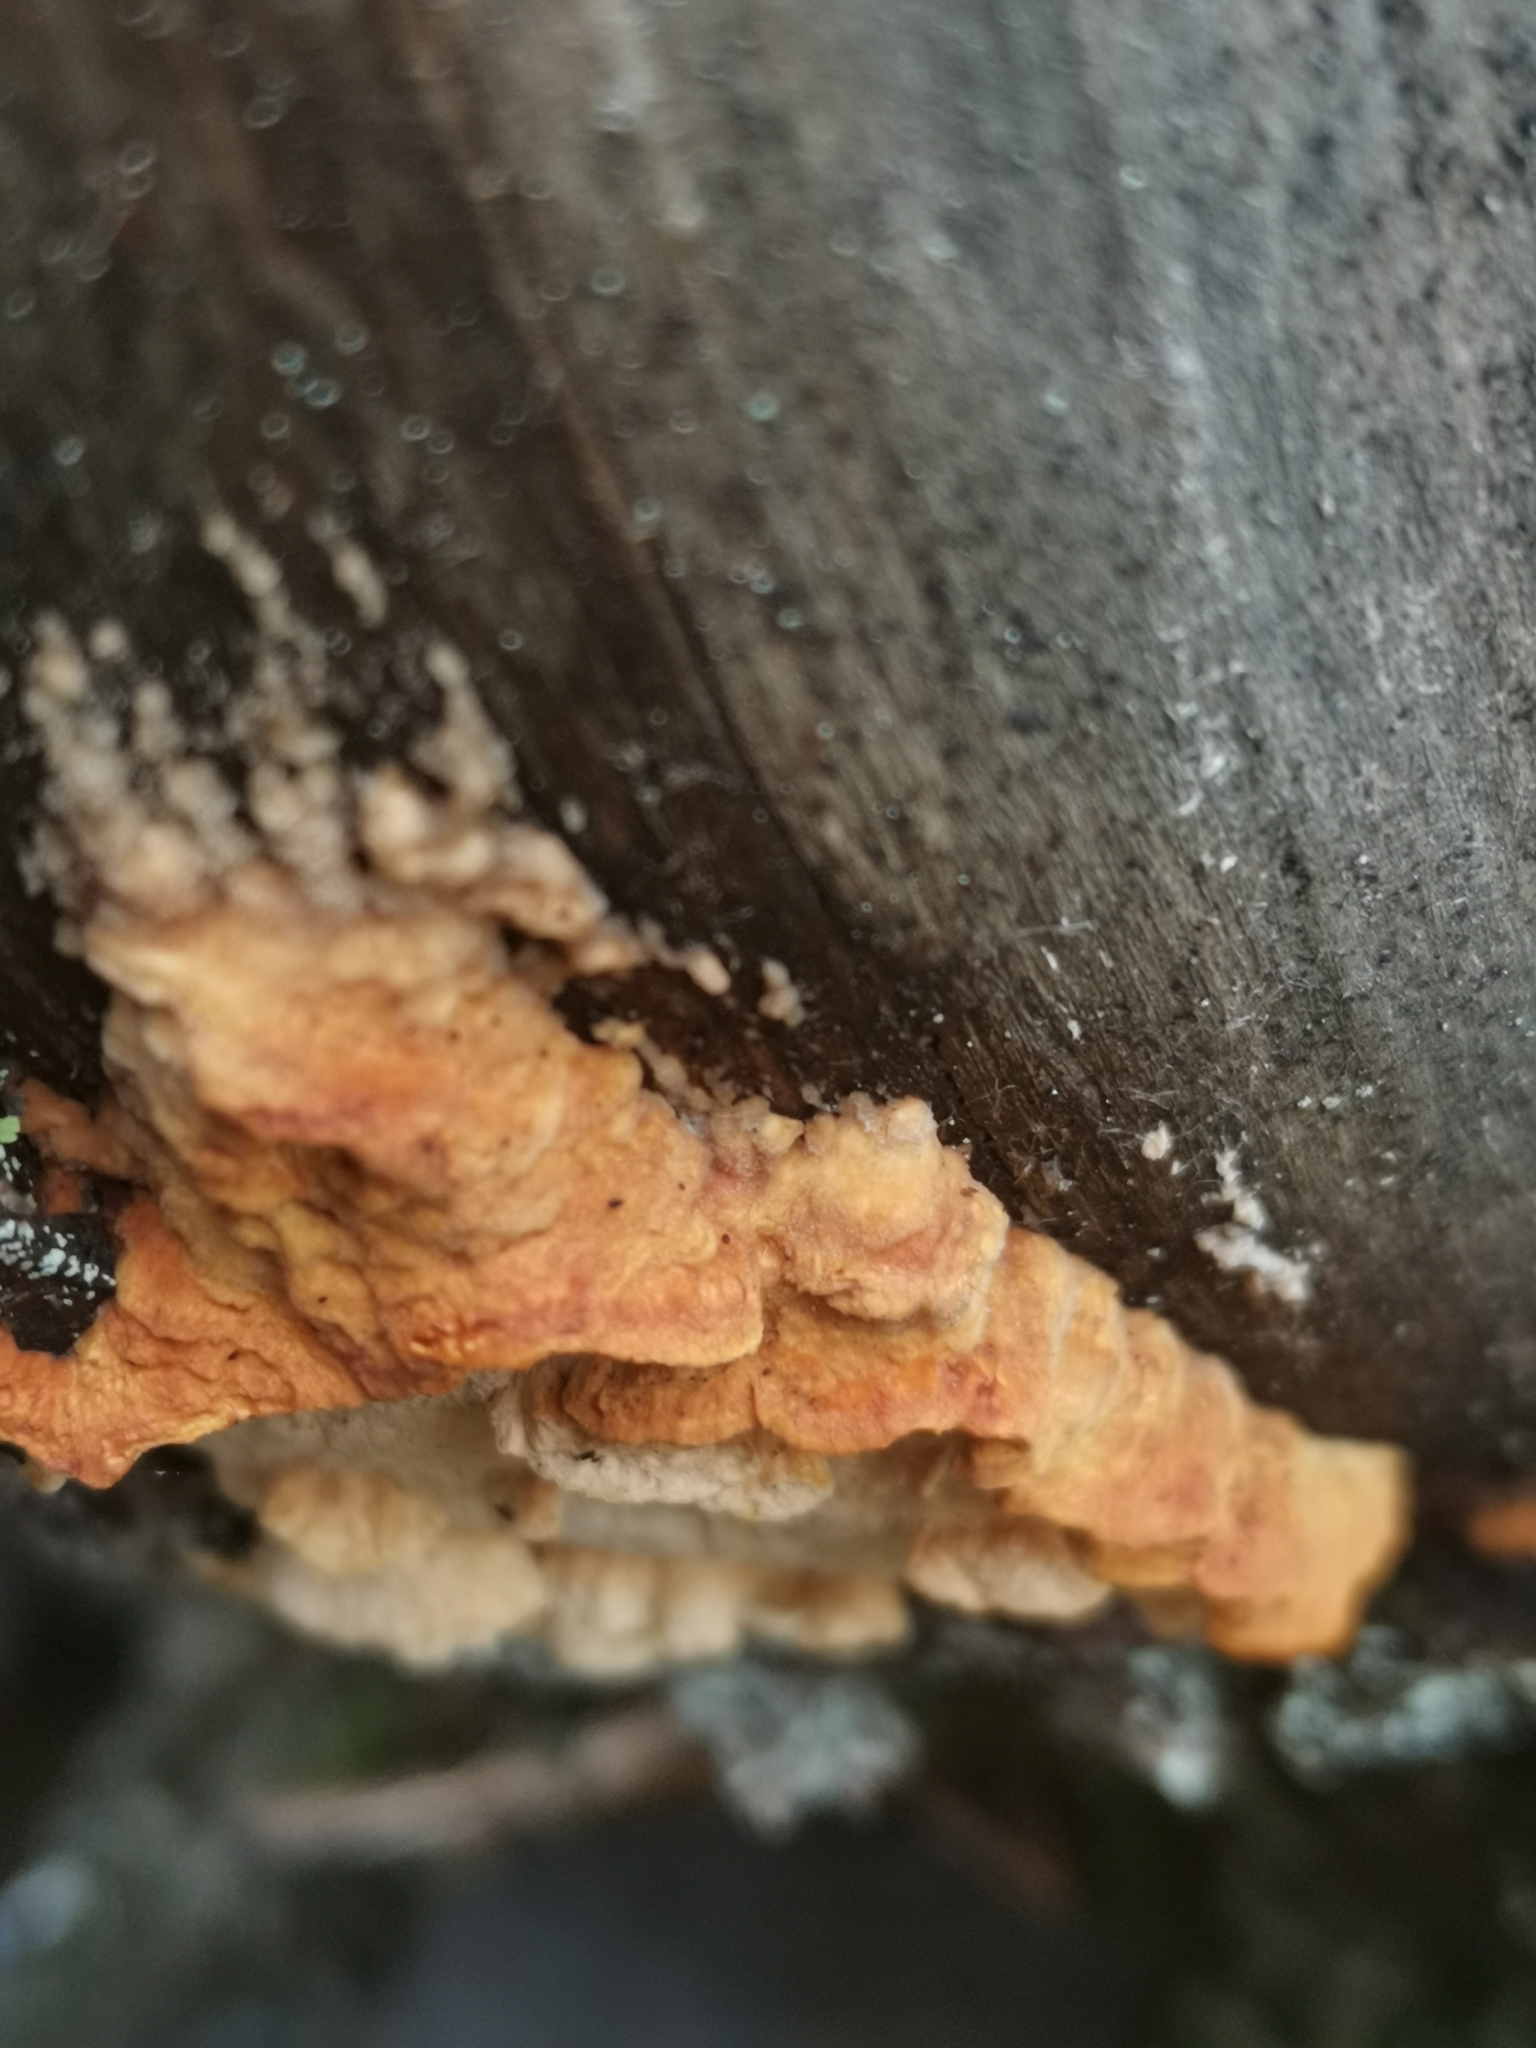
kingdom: Fungi
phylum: Basidiomycota
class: Agaricomycetes
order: Polyporales
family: Fomitopsidaceae
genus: Neoantrodia
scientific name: Neoantrodia serialis
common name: Serried porecrust
